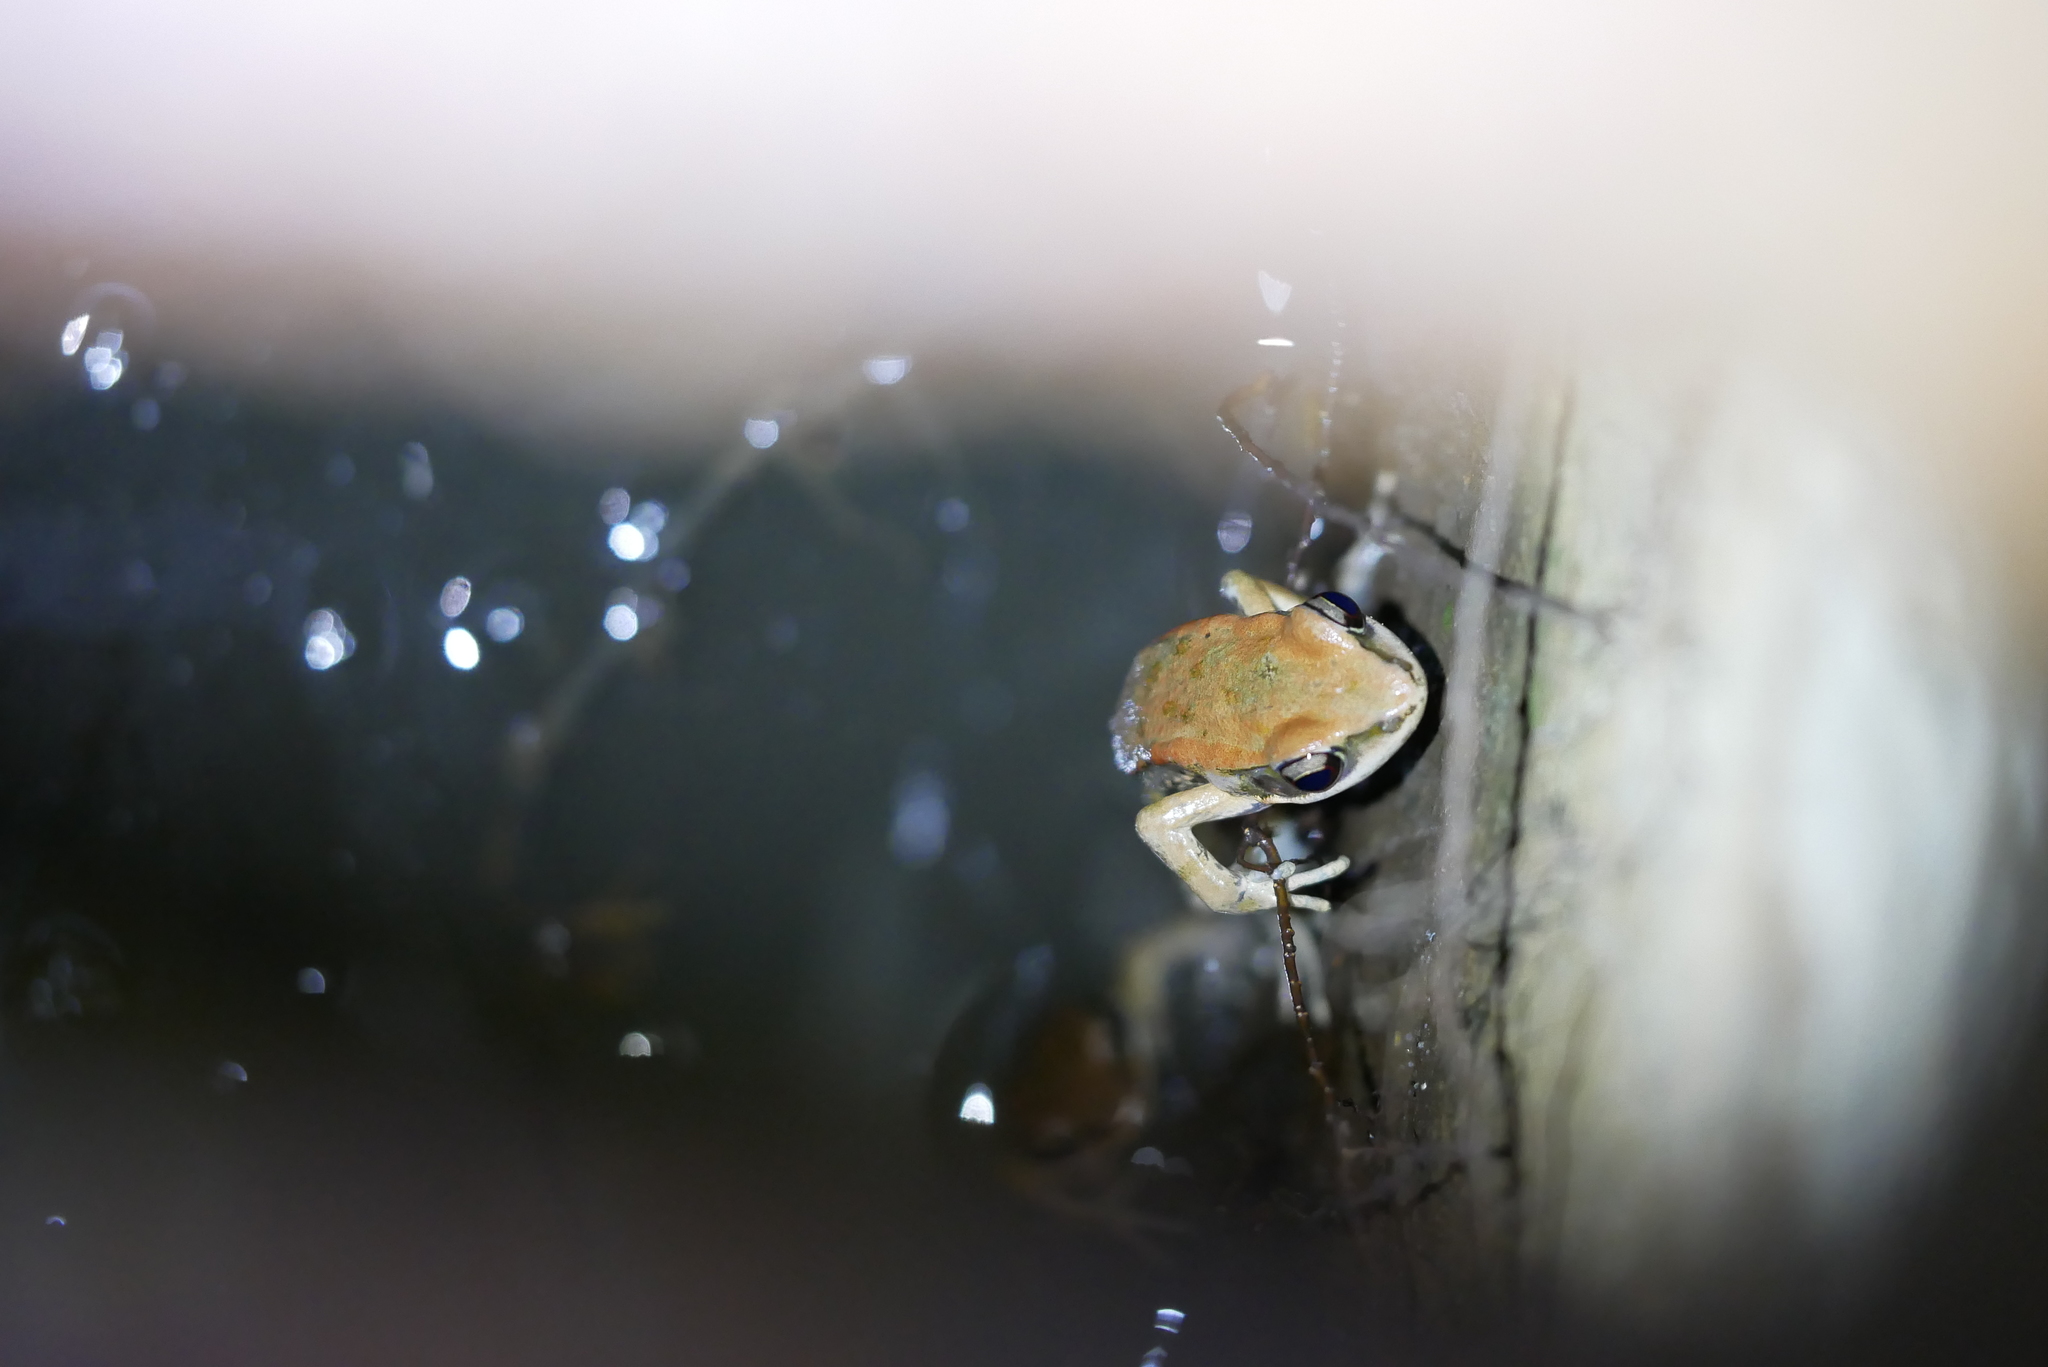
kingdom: Animalia
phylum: Chordata
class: Amphibia
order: Anura
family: Ranidae
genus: Hylarana
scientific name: Hylarana latouchii
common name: Broad-folded frog
